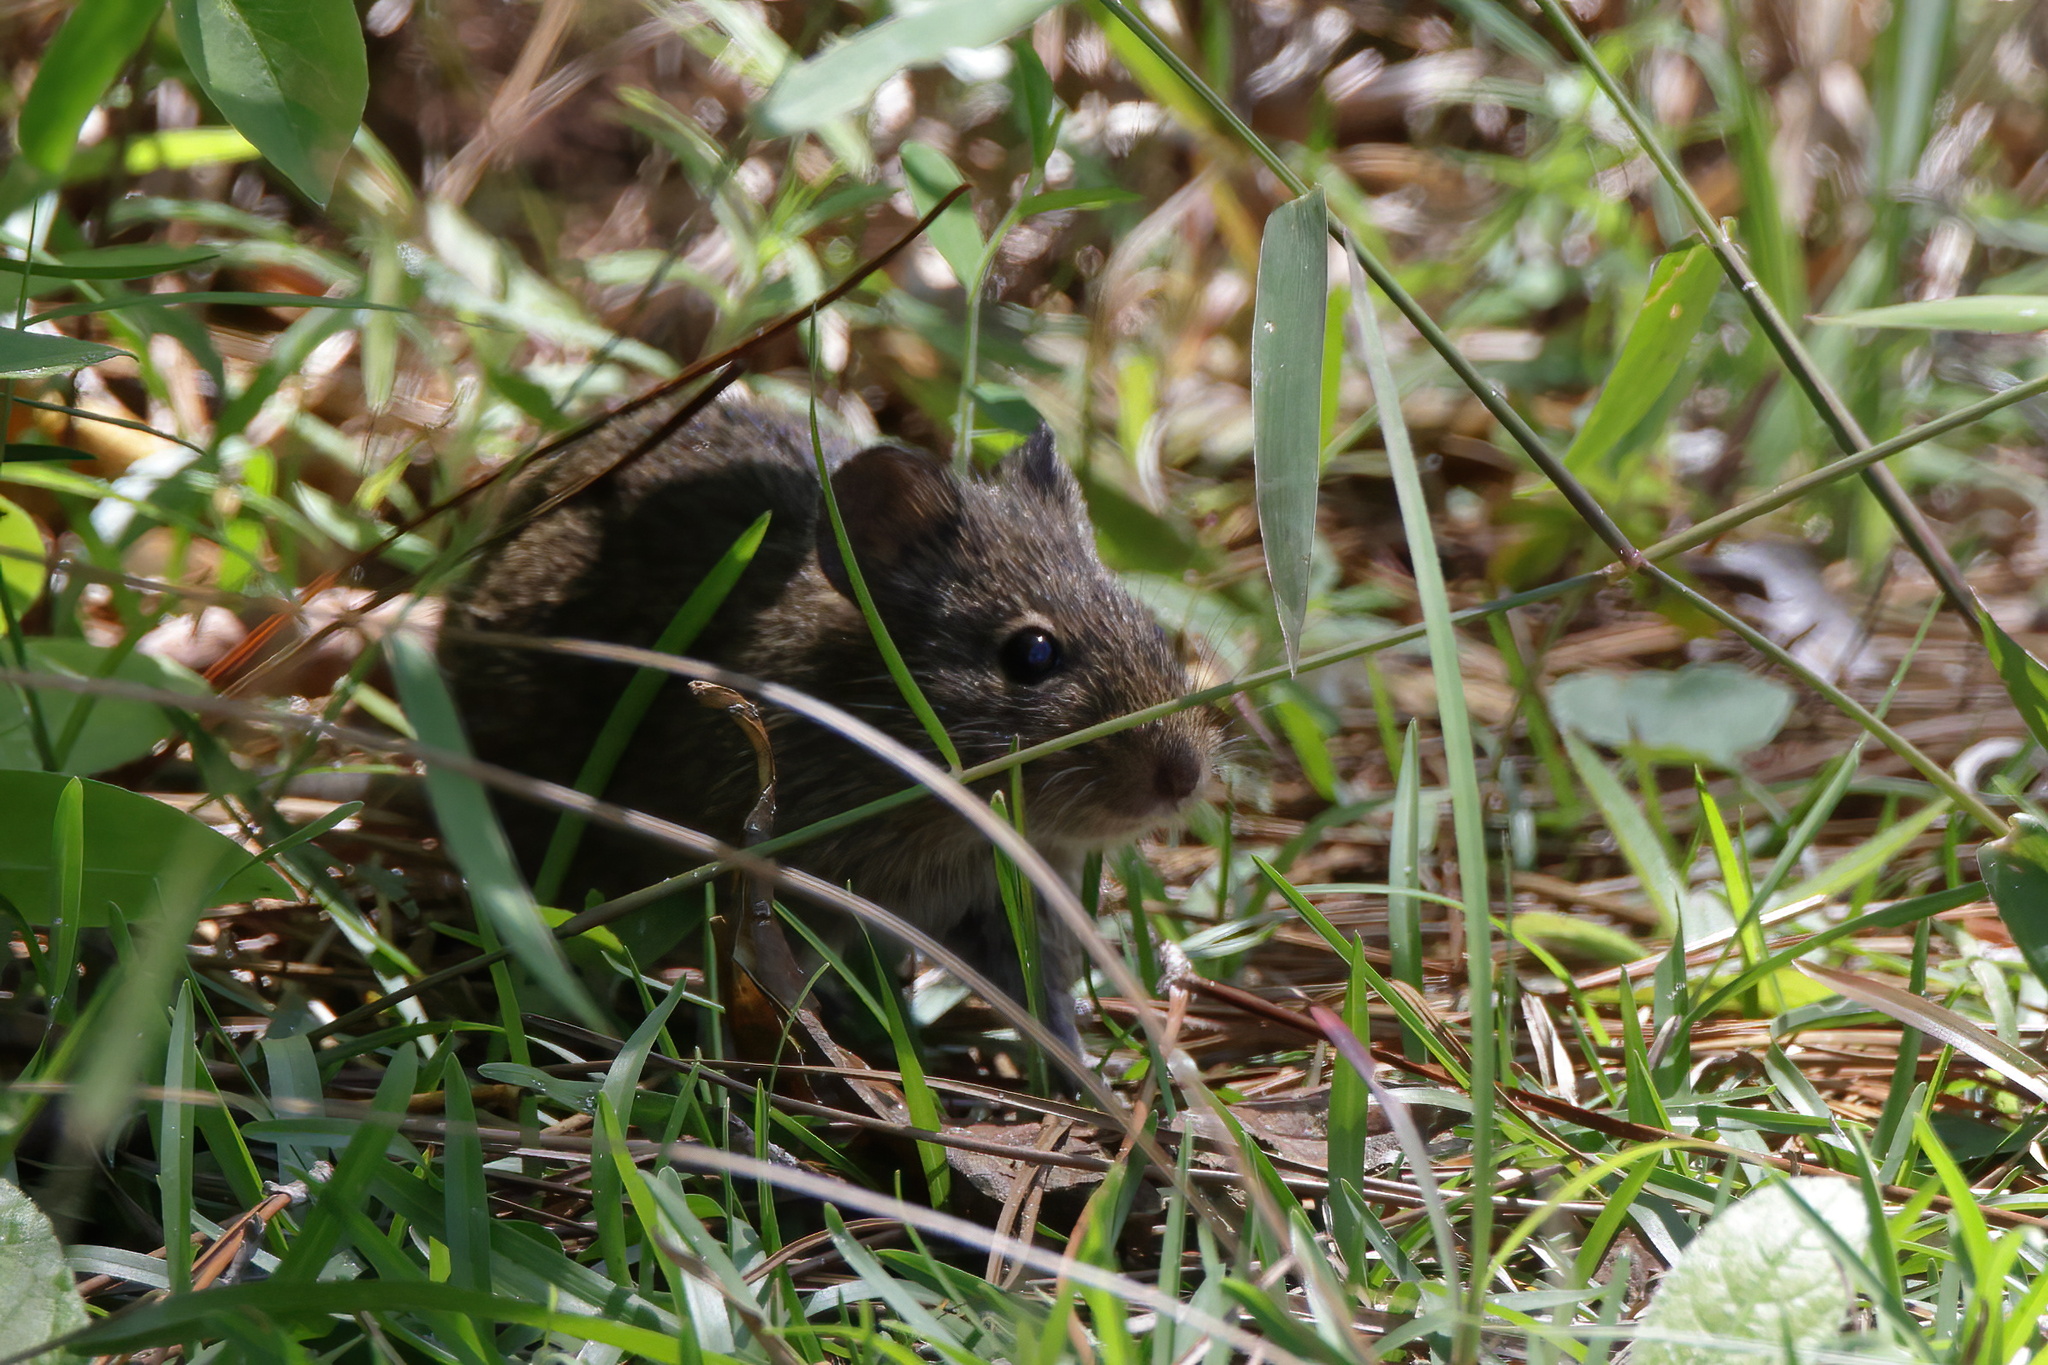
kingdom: Animalia
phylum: Chordata
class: Mammalia
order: Rodentia
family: Cricetidae
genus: Sigmodon
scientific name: Sigmodon hispidus
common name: Hispid cotton rat
